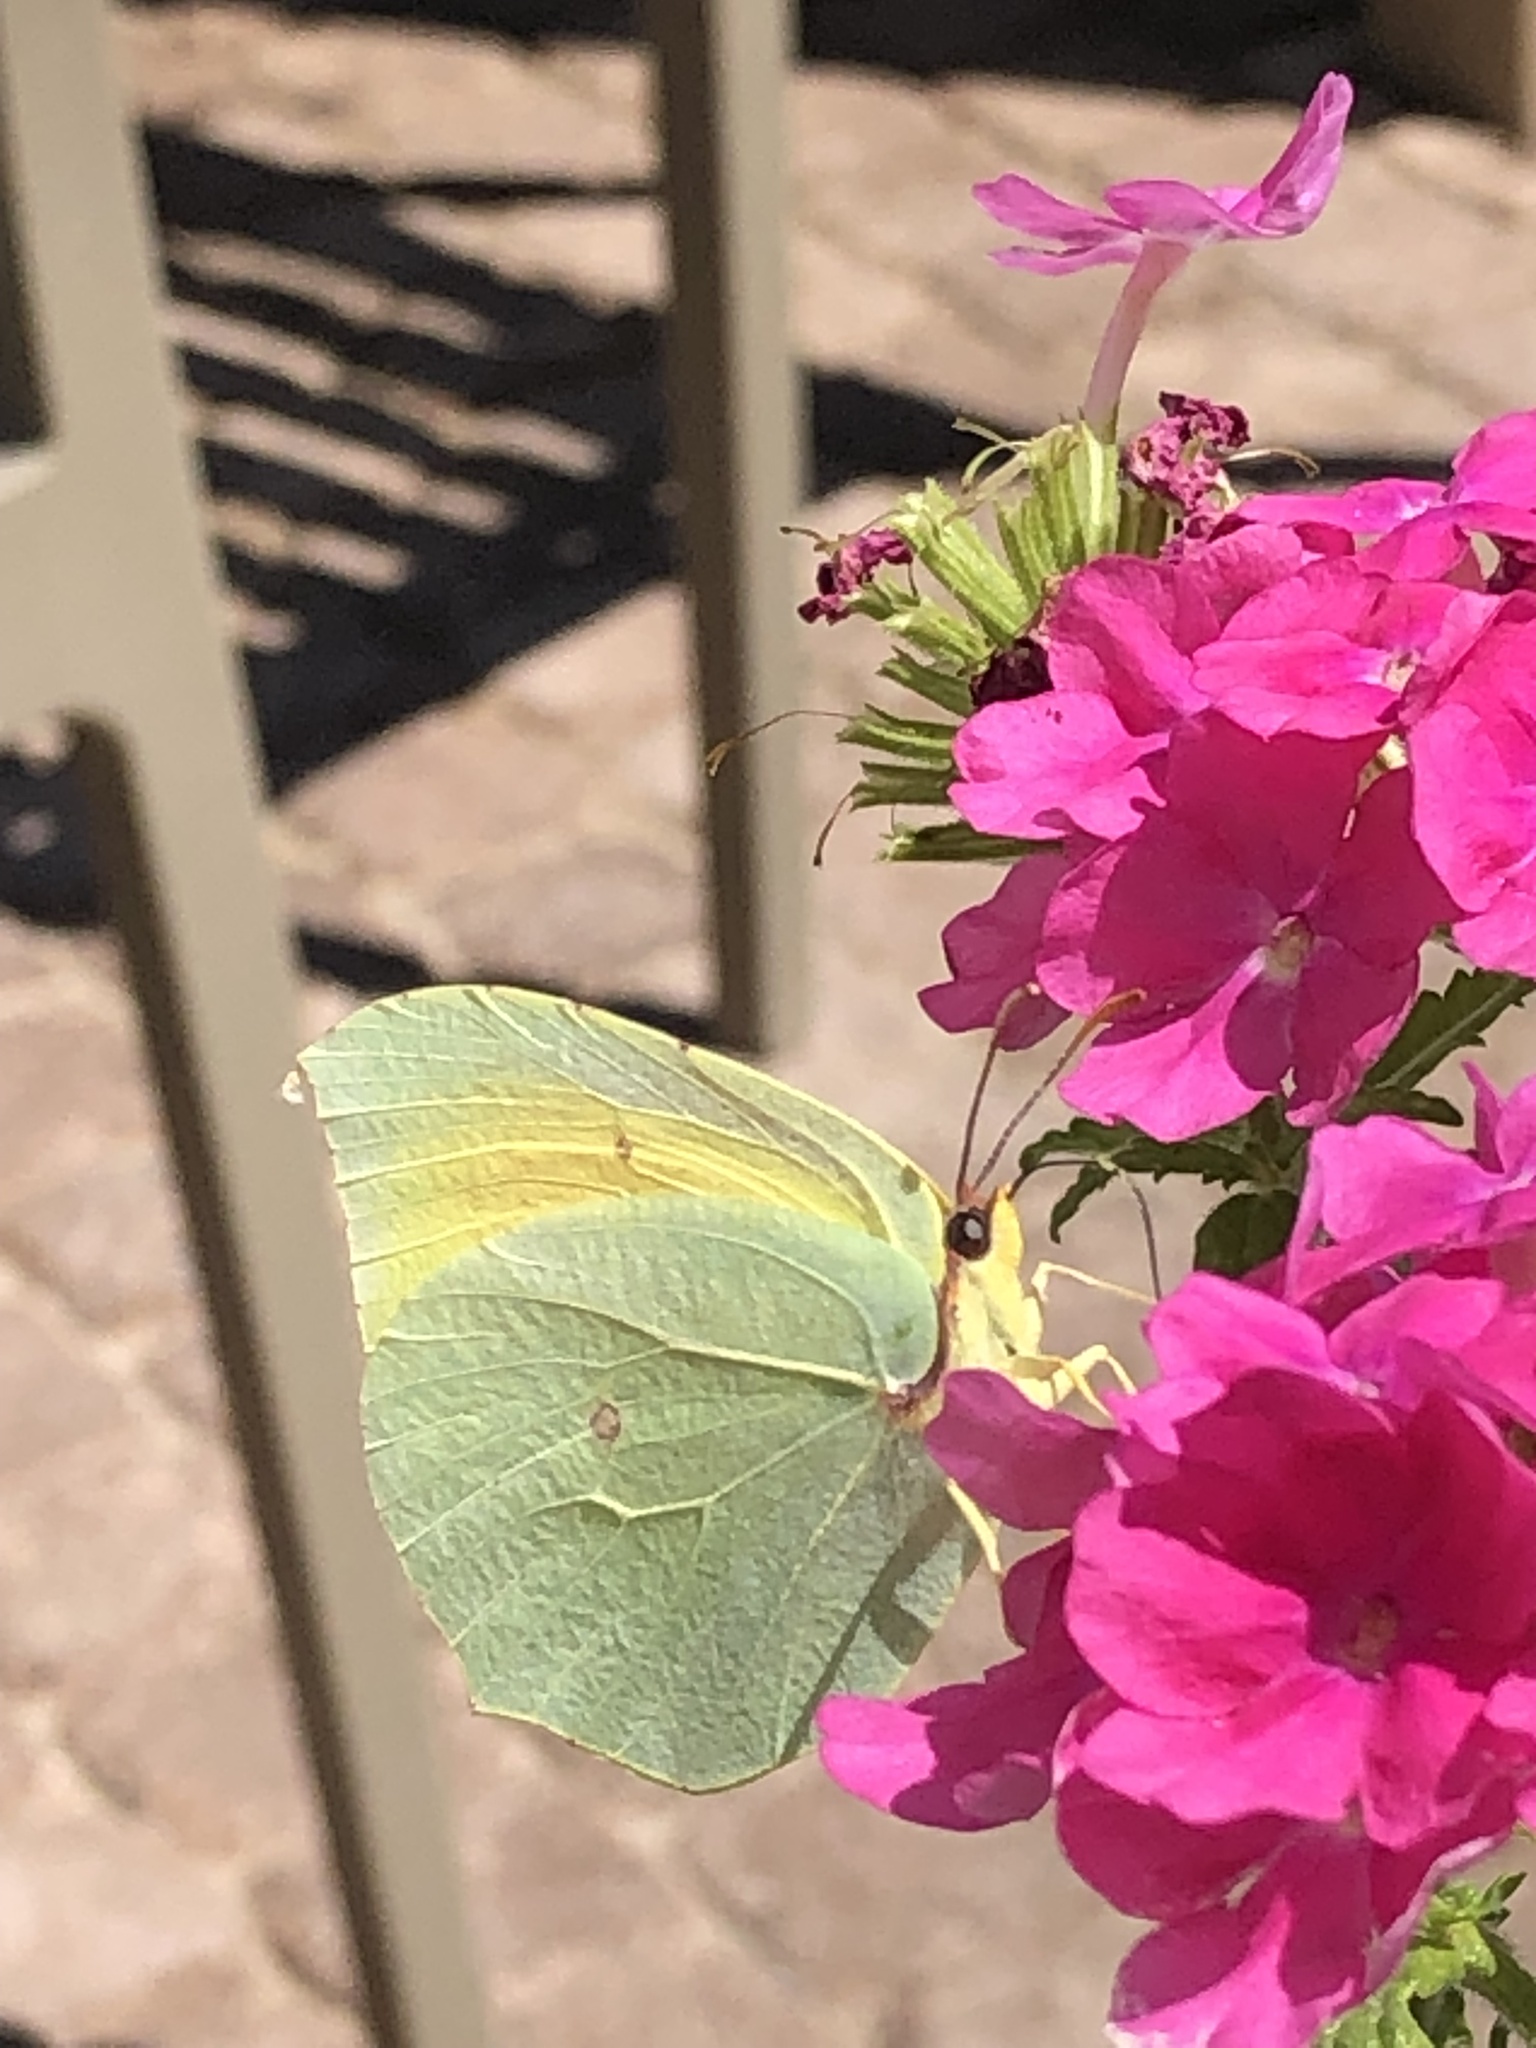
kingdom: Animalia
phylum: Arthropoda
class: Insecta
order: Lepidoptera
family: Pieridae
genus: Gonepteryx
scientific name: Gonepteryx cleopatra
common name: Cleopatra
